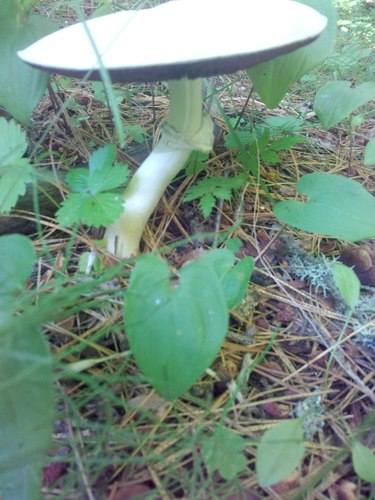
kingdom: Fungi
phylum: Basidiomycota
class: Agaricomycetes
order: Agaricales
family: Agaricaceae
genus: Agaricus
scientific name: Agaricus sylvicola
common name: Wood mushroom
